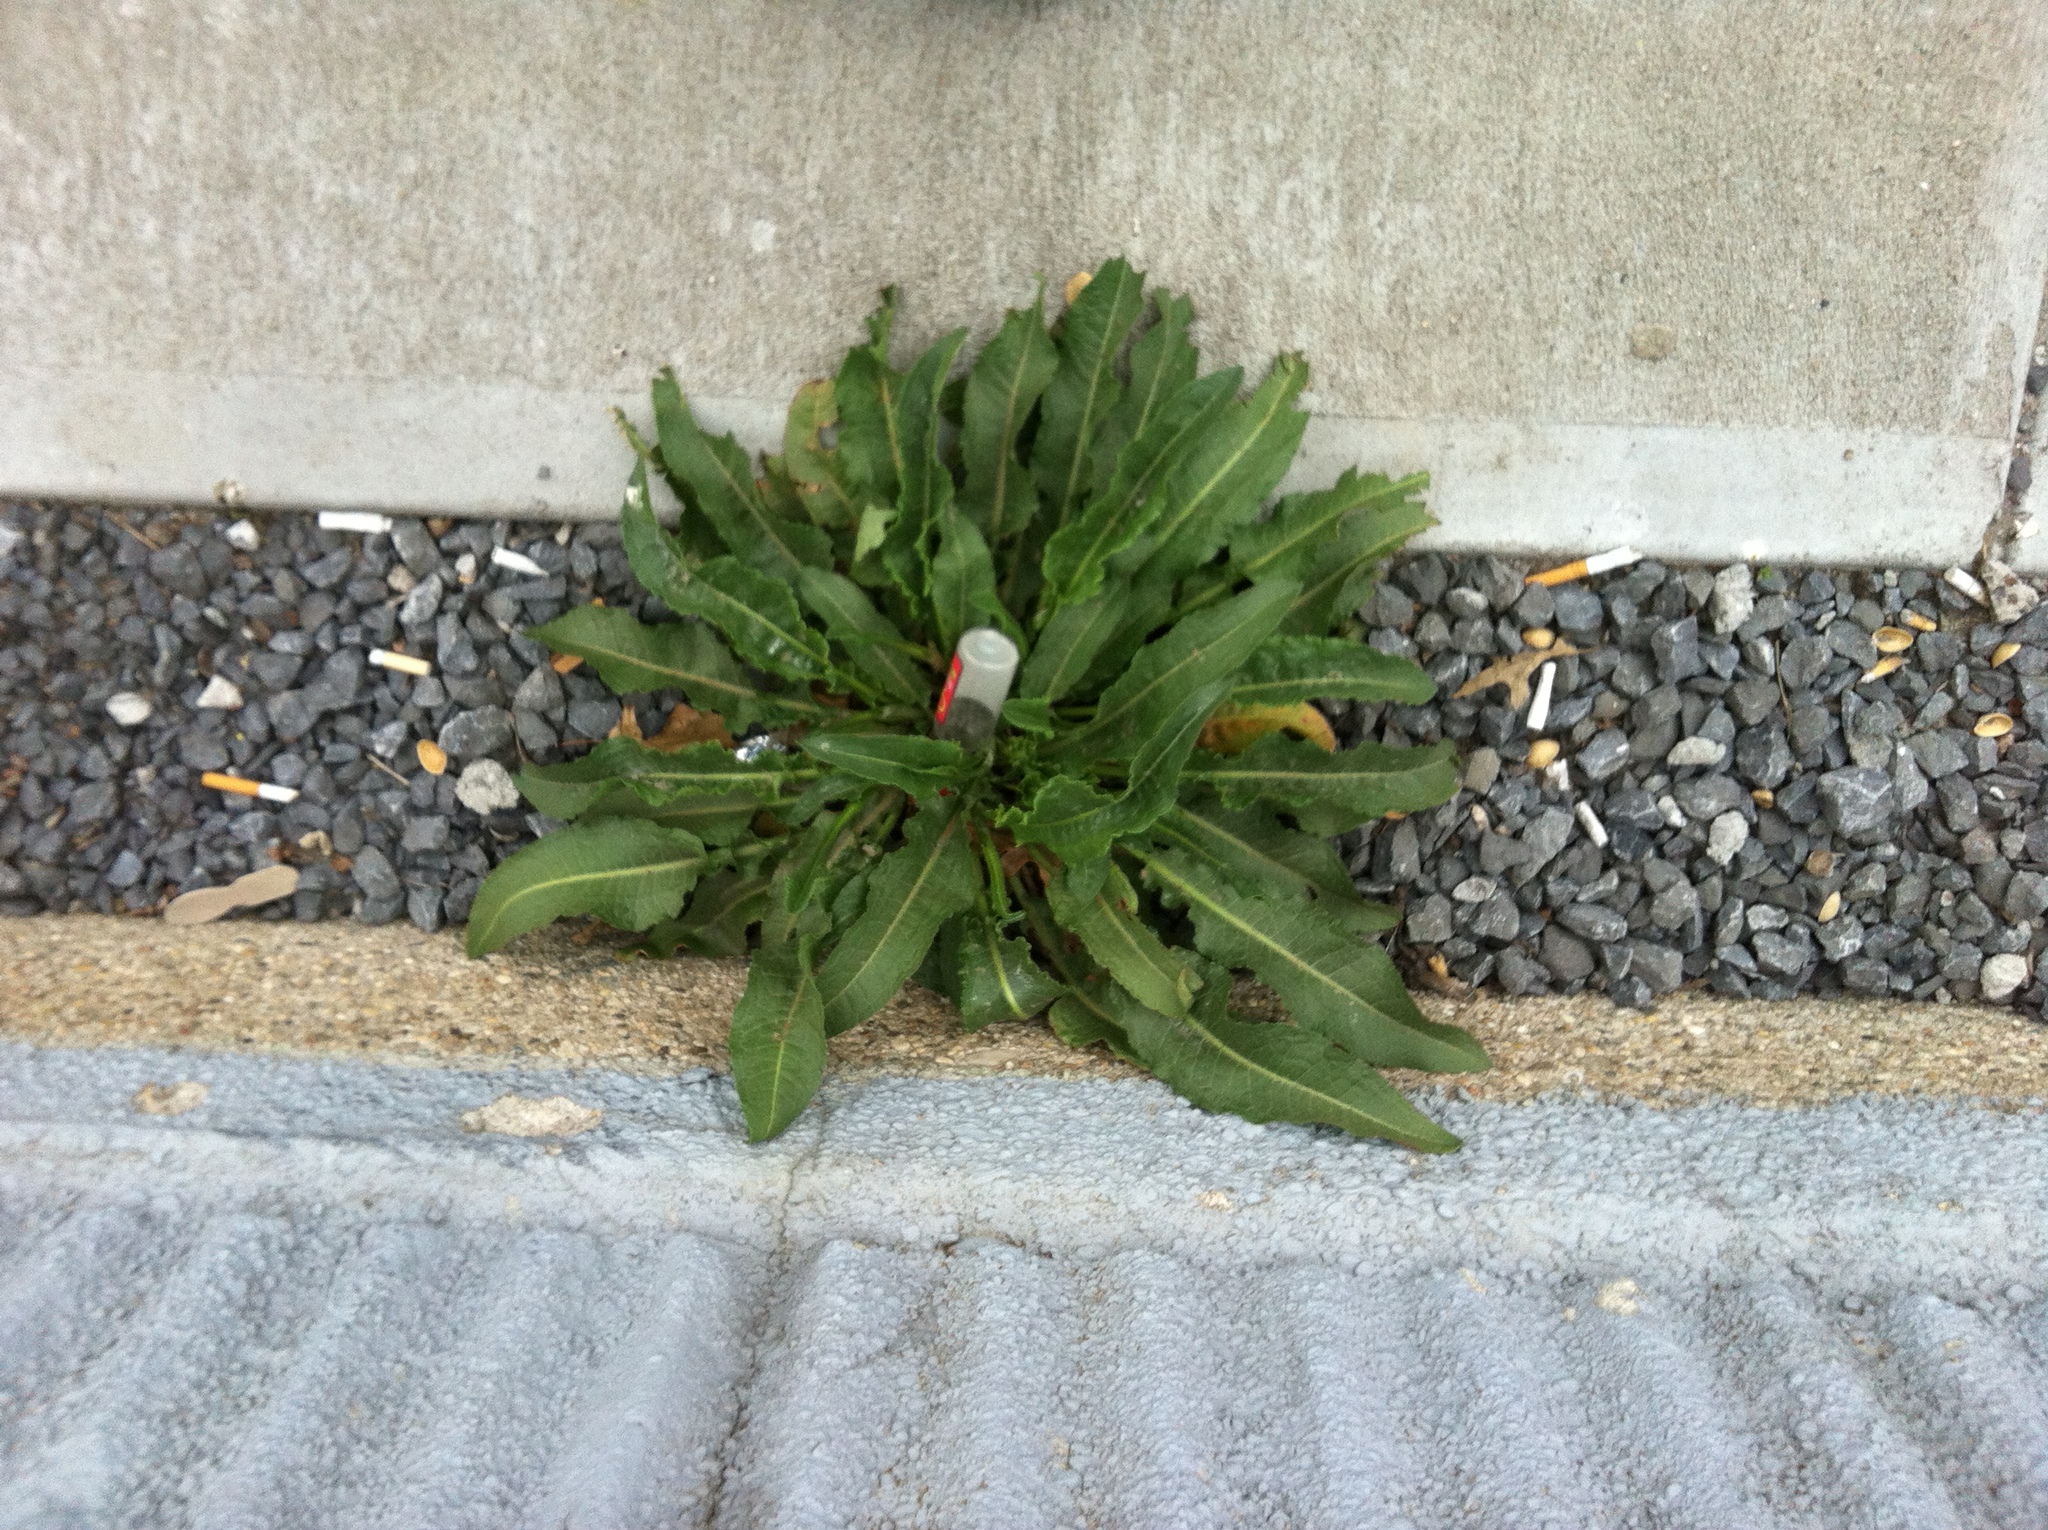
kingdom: Plantae
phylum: Tracheophyta
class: Magnoliopsida
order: Caryophyllales
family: Polygonaceae
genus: Rumex
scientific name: Rumex crispus
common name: Curled dock
